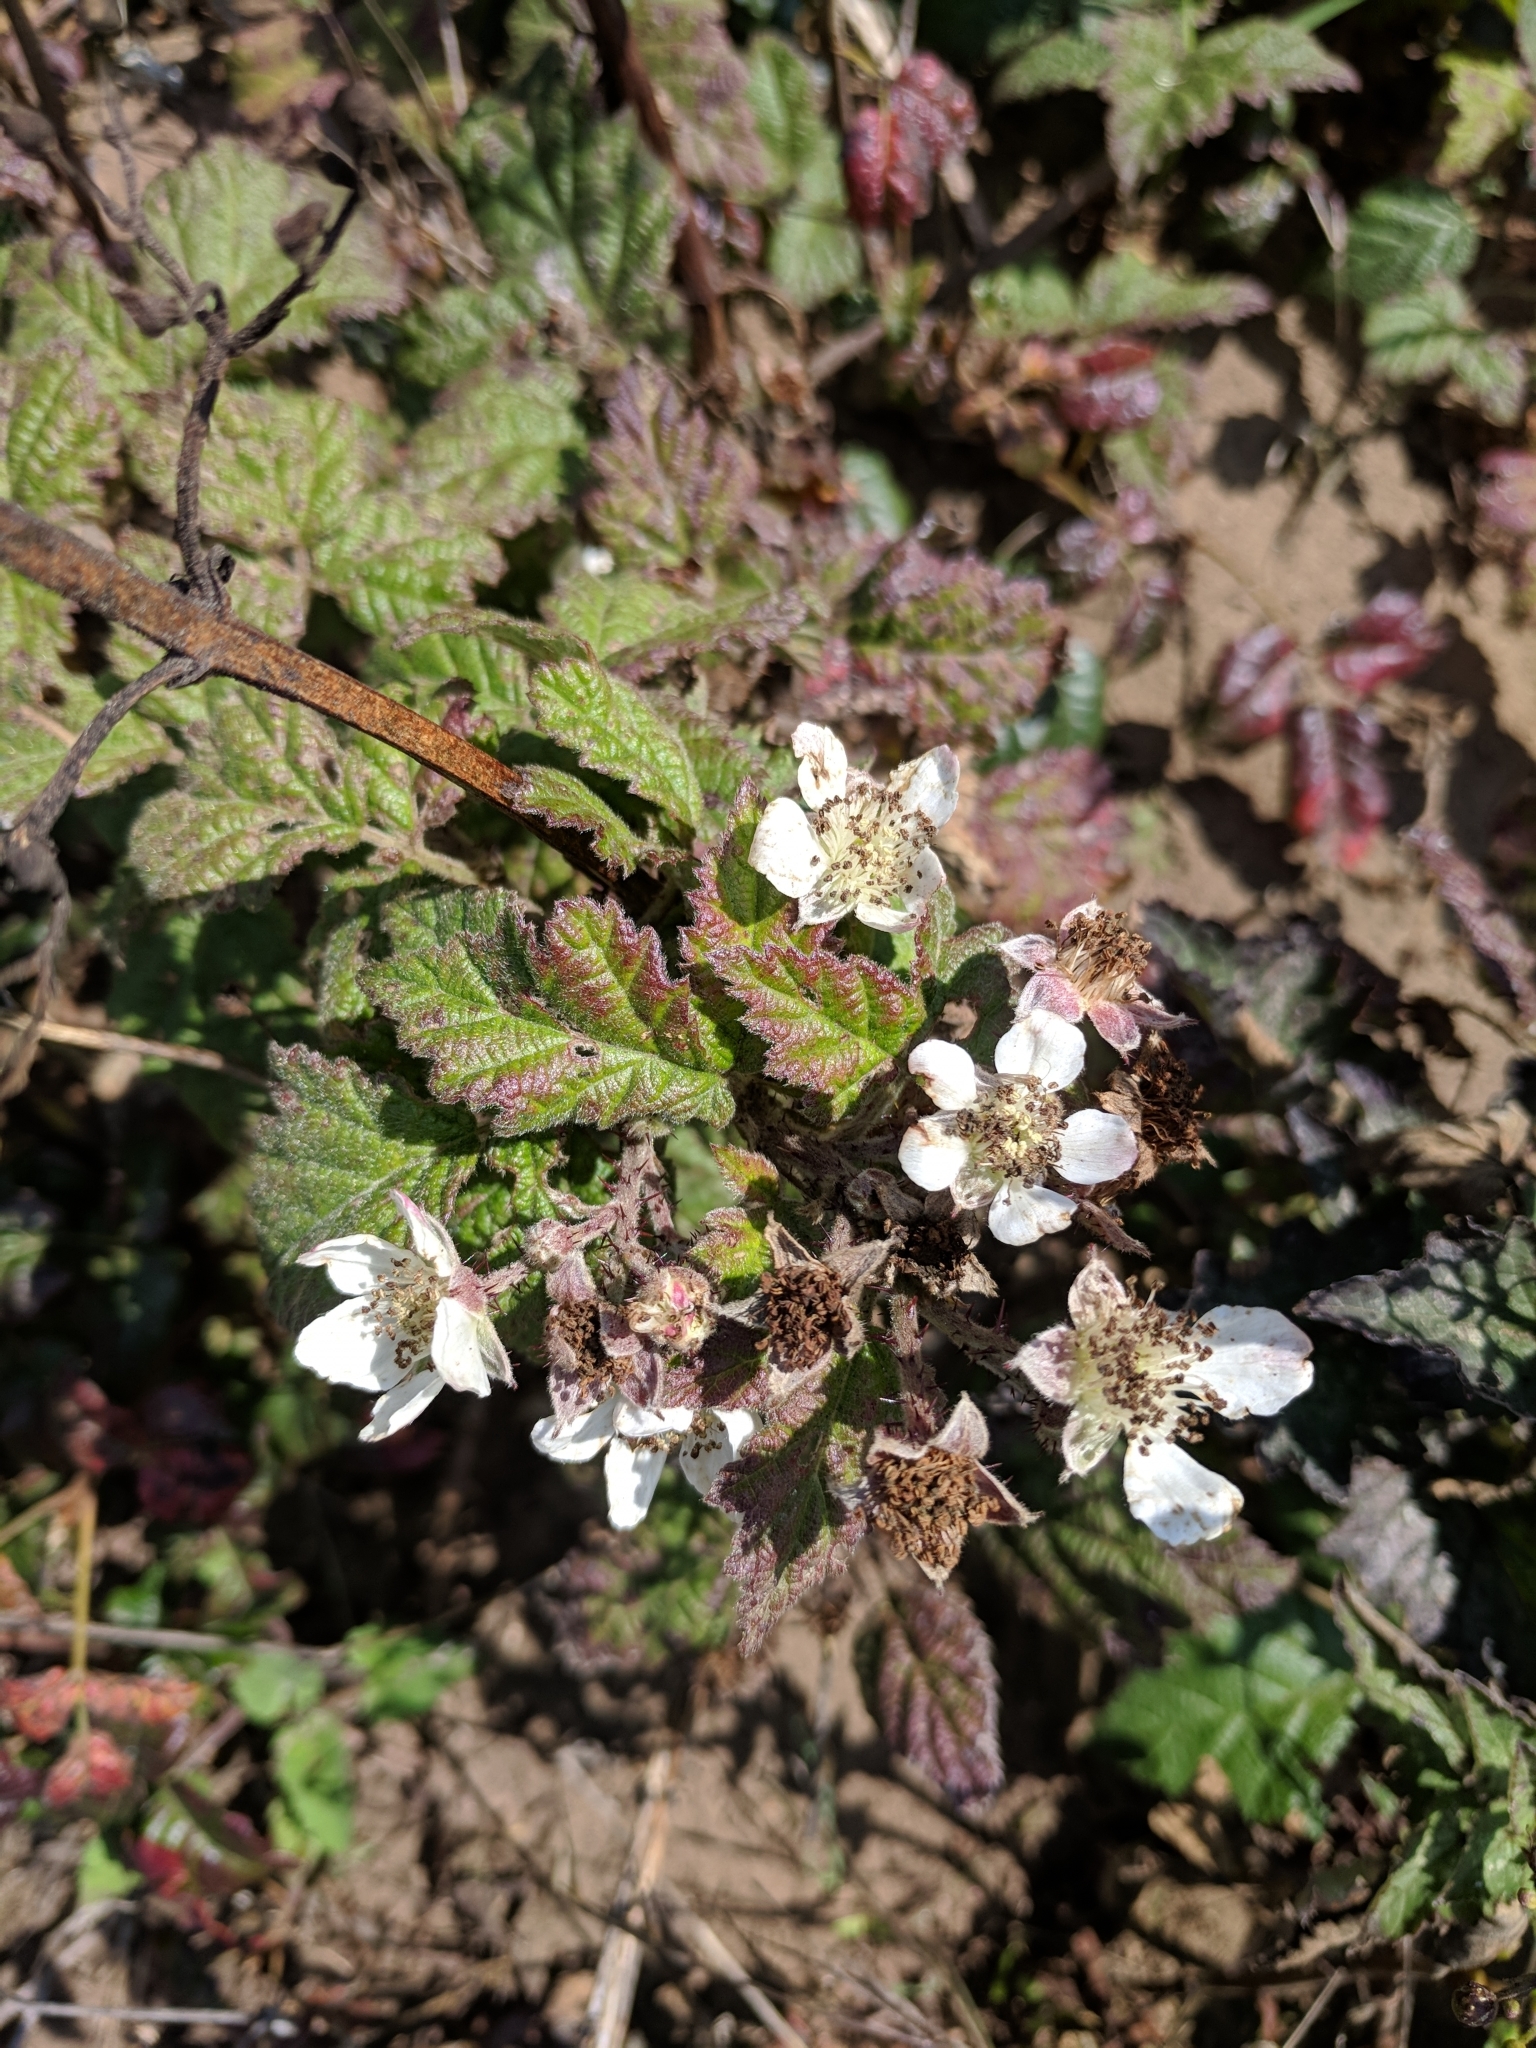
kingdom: Plantae
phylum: Tracheophyta
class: Magnoliopsida
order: Rosales
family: Rosaceae
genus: Rubus
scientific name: Rubus ursinus
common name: Pacific blackberry
